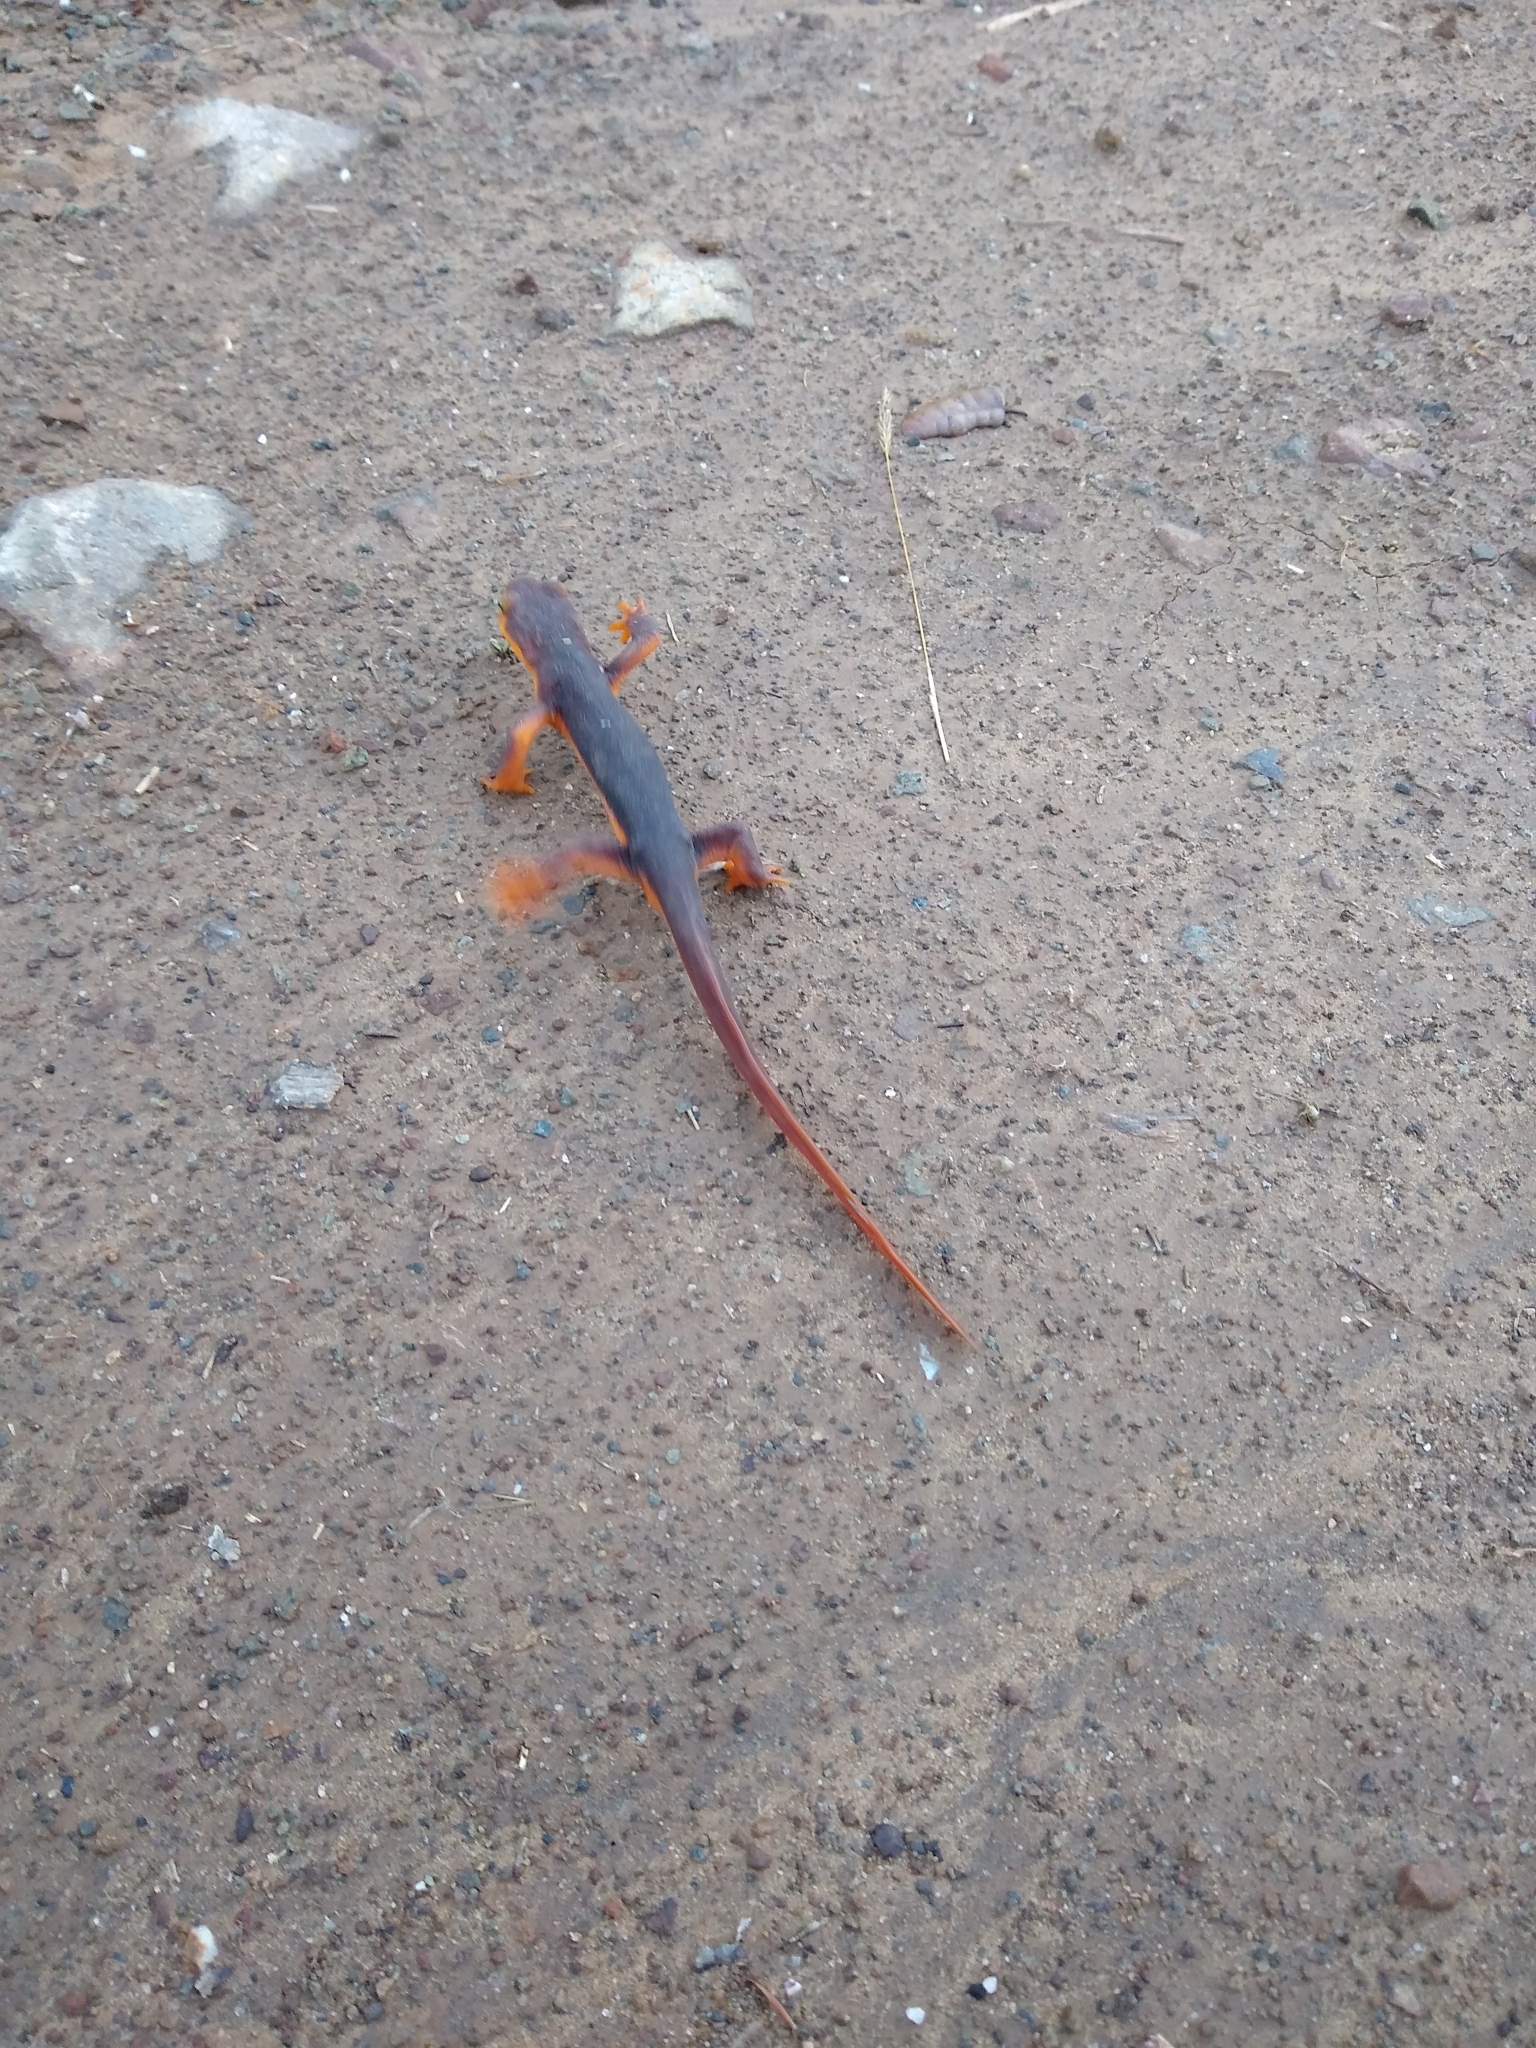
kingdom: Animalia
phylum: Chordata
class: Amphibia
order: Caudata
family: Salamandridae
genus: Taricha
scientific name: Taricha torosa
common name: California newt
